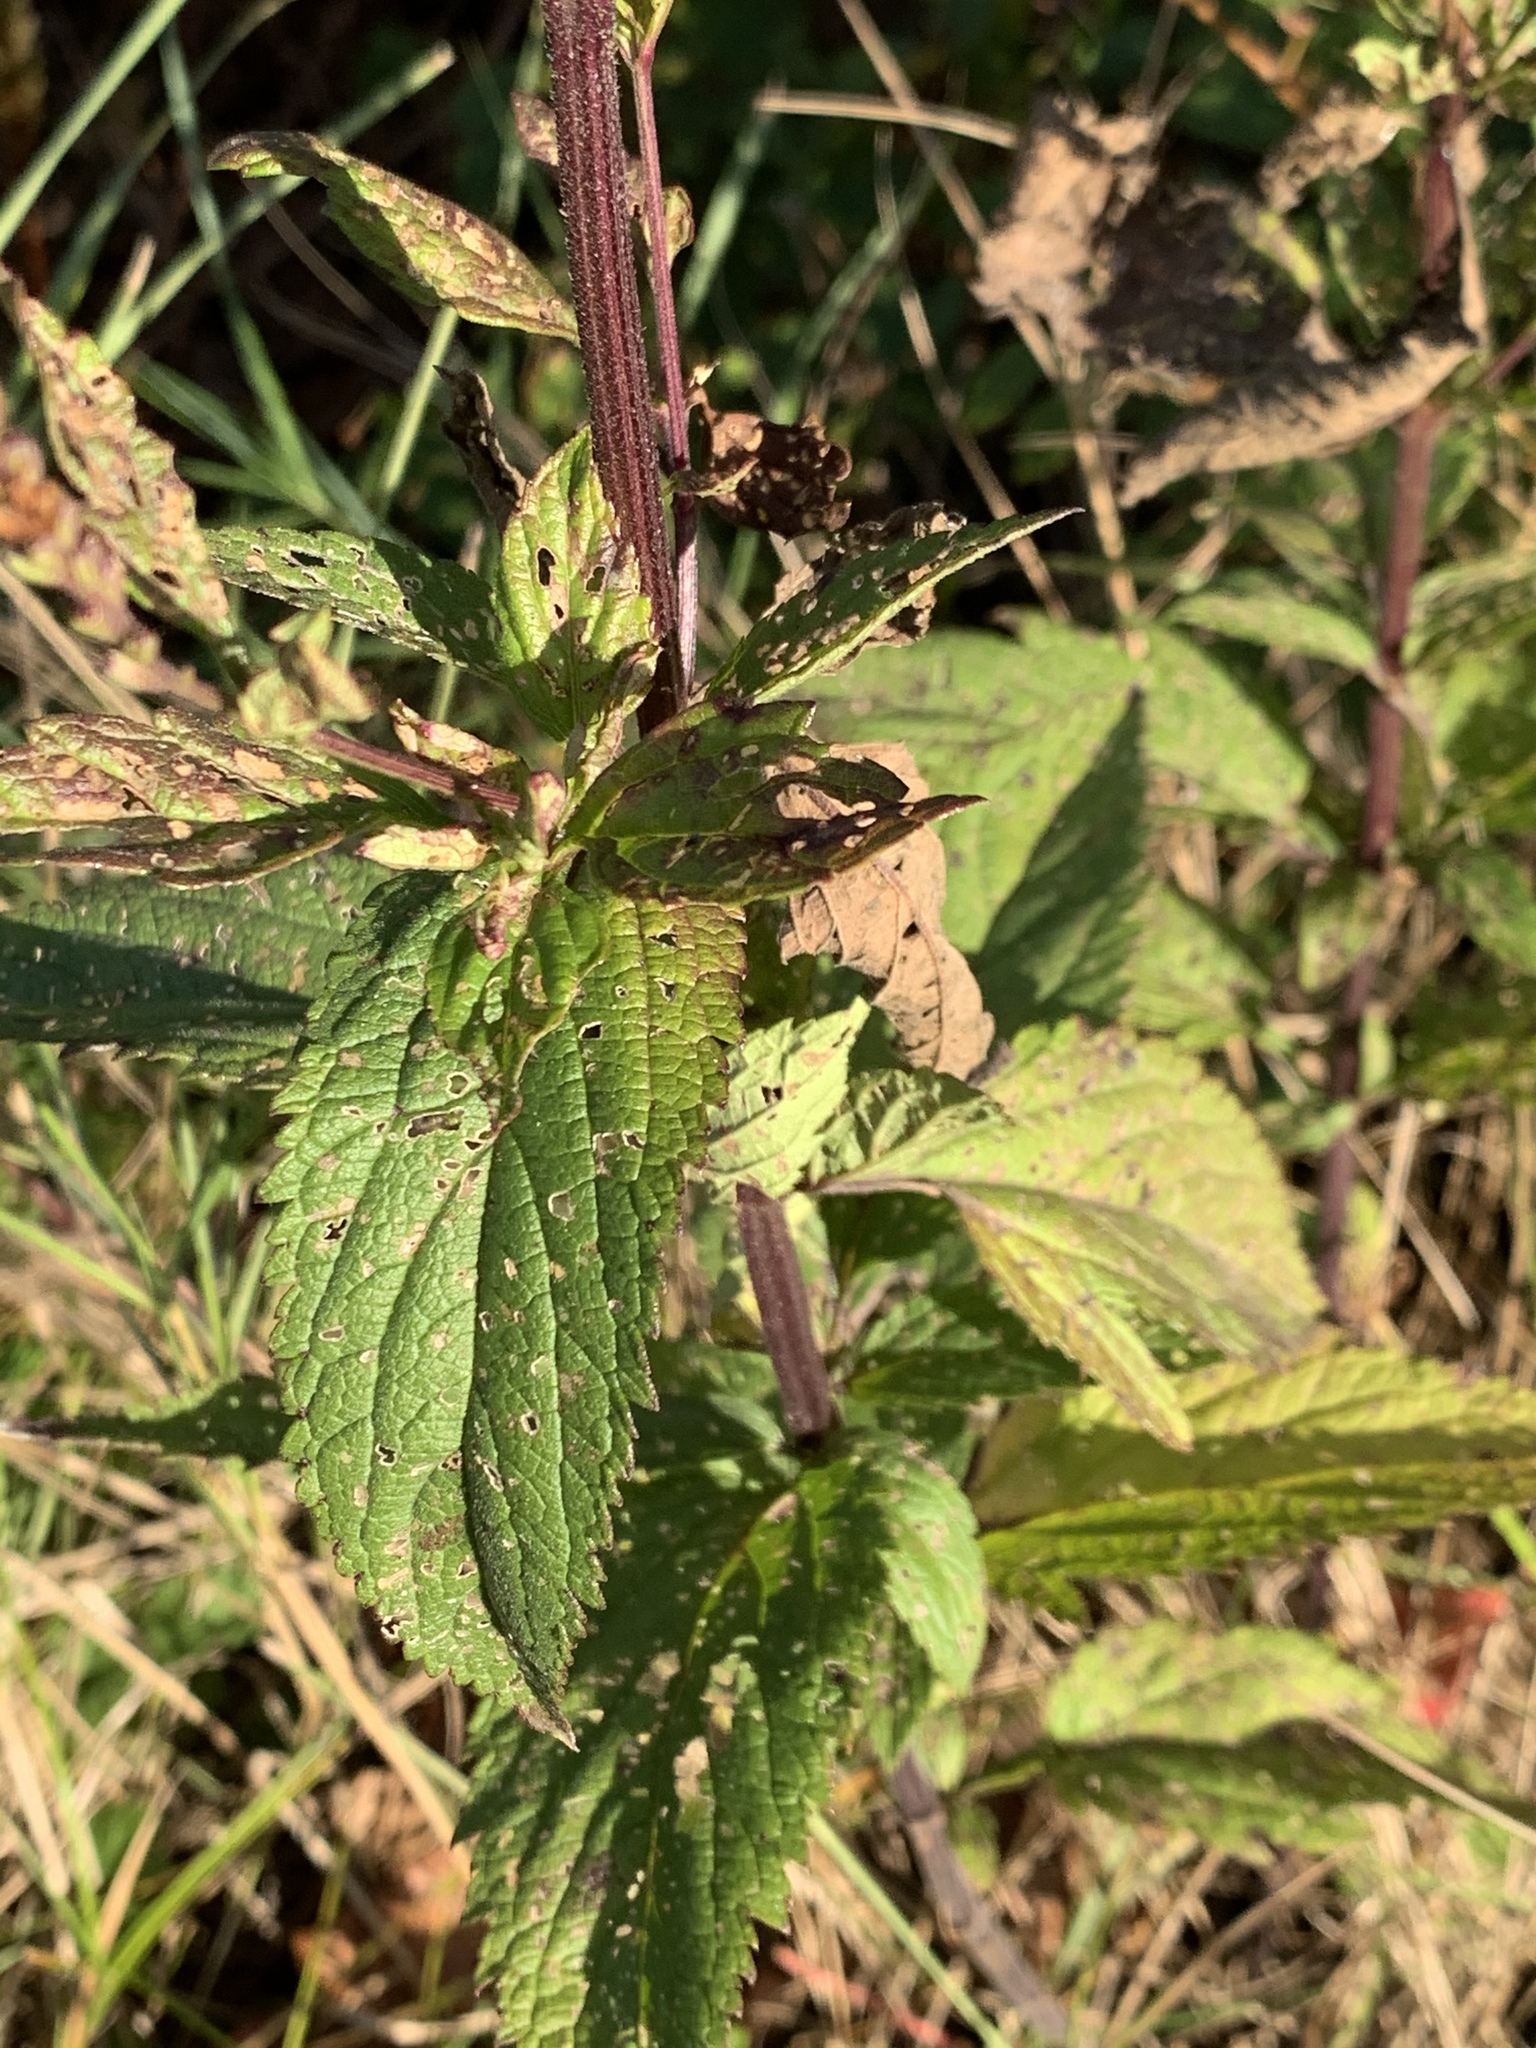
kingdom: Plantae
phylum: Tracheophyta
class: Magnoliopsida
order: Lamiales
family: Verbenaceae
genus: Verbena
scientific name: Verbena hastata
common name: American blue vervain
